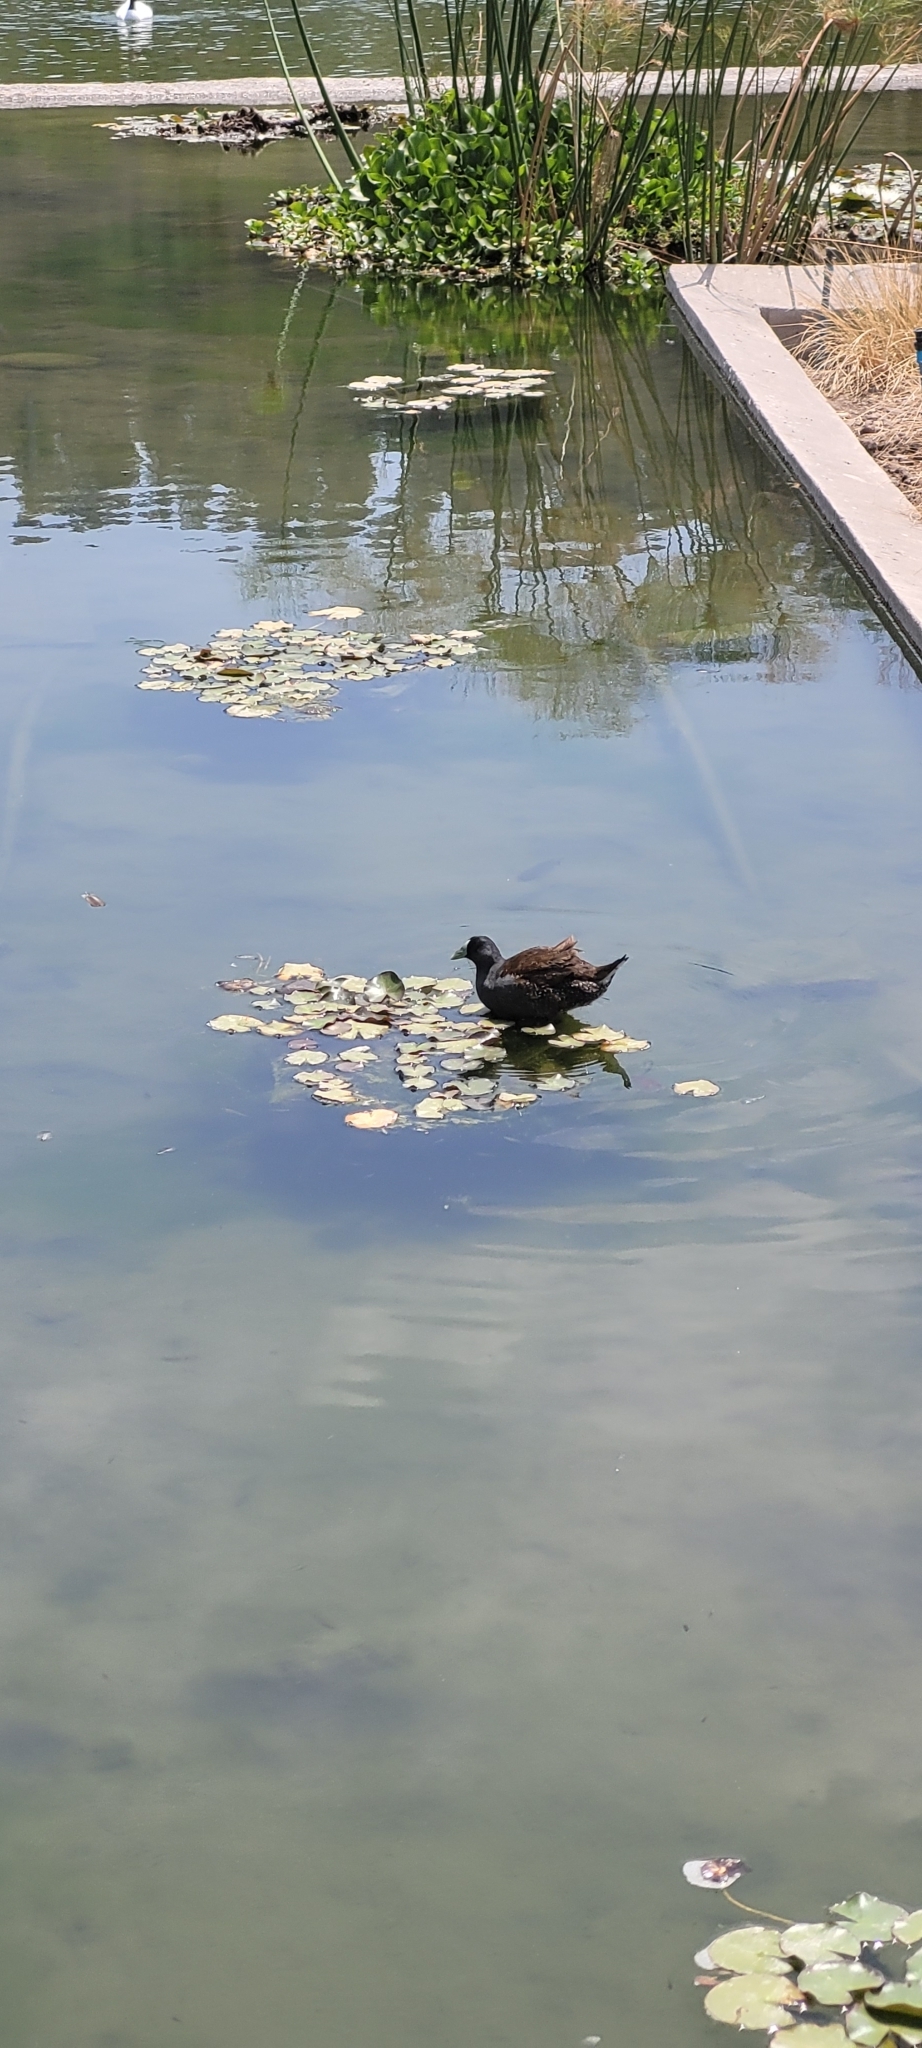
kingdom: Animalia
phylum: Chordata
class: Aves
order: Gruiformes
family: Rallidae
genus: Gallinula
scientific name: Gallinula melanops
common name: Spot-flanked gallinule
